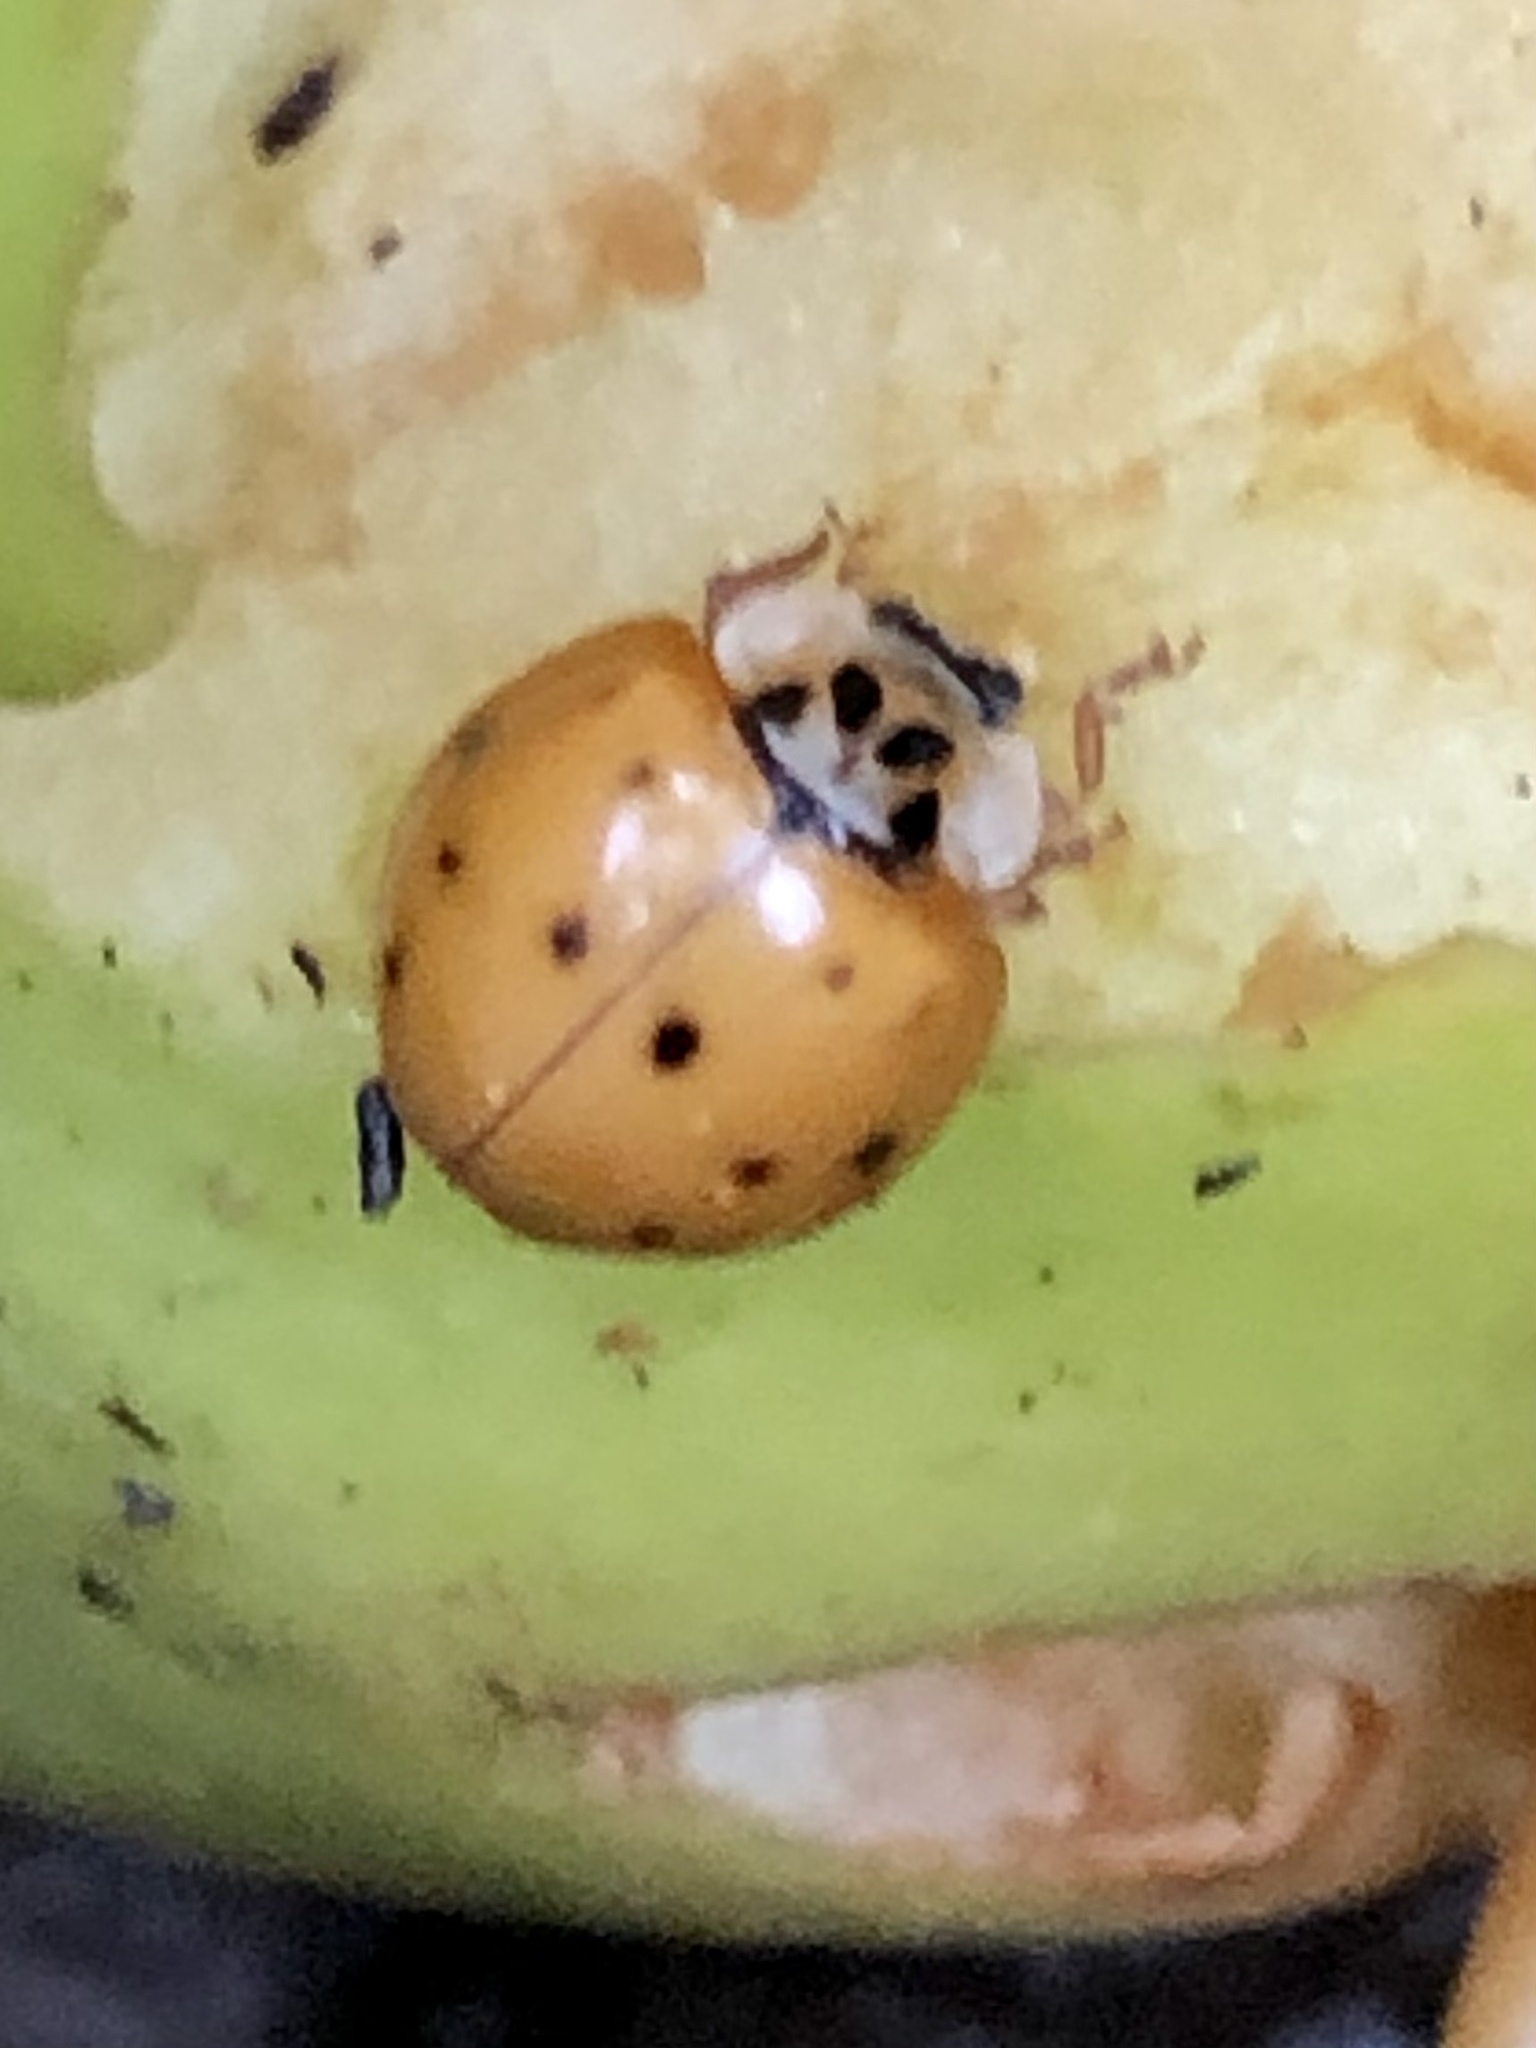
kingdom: Animalia
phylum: Arthropoda
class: Insecta
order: Coleoptera
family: Coccinellidae
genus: Harmonia
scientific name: Harmonia axyridis
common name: Harlequin ladybird
